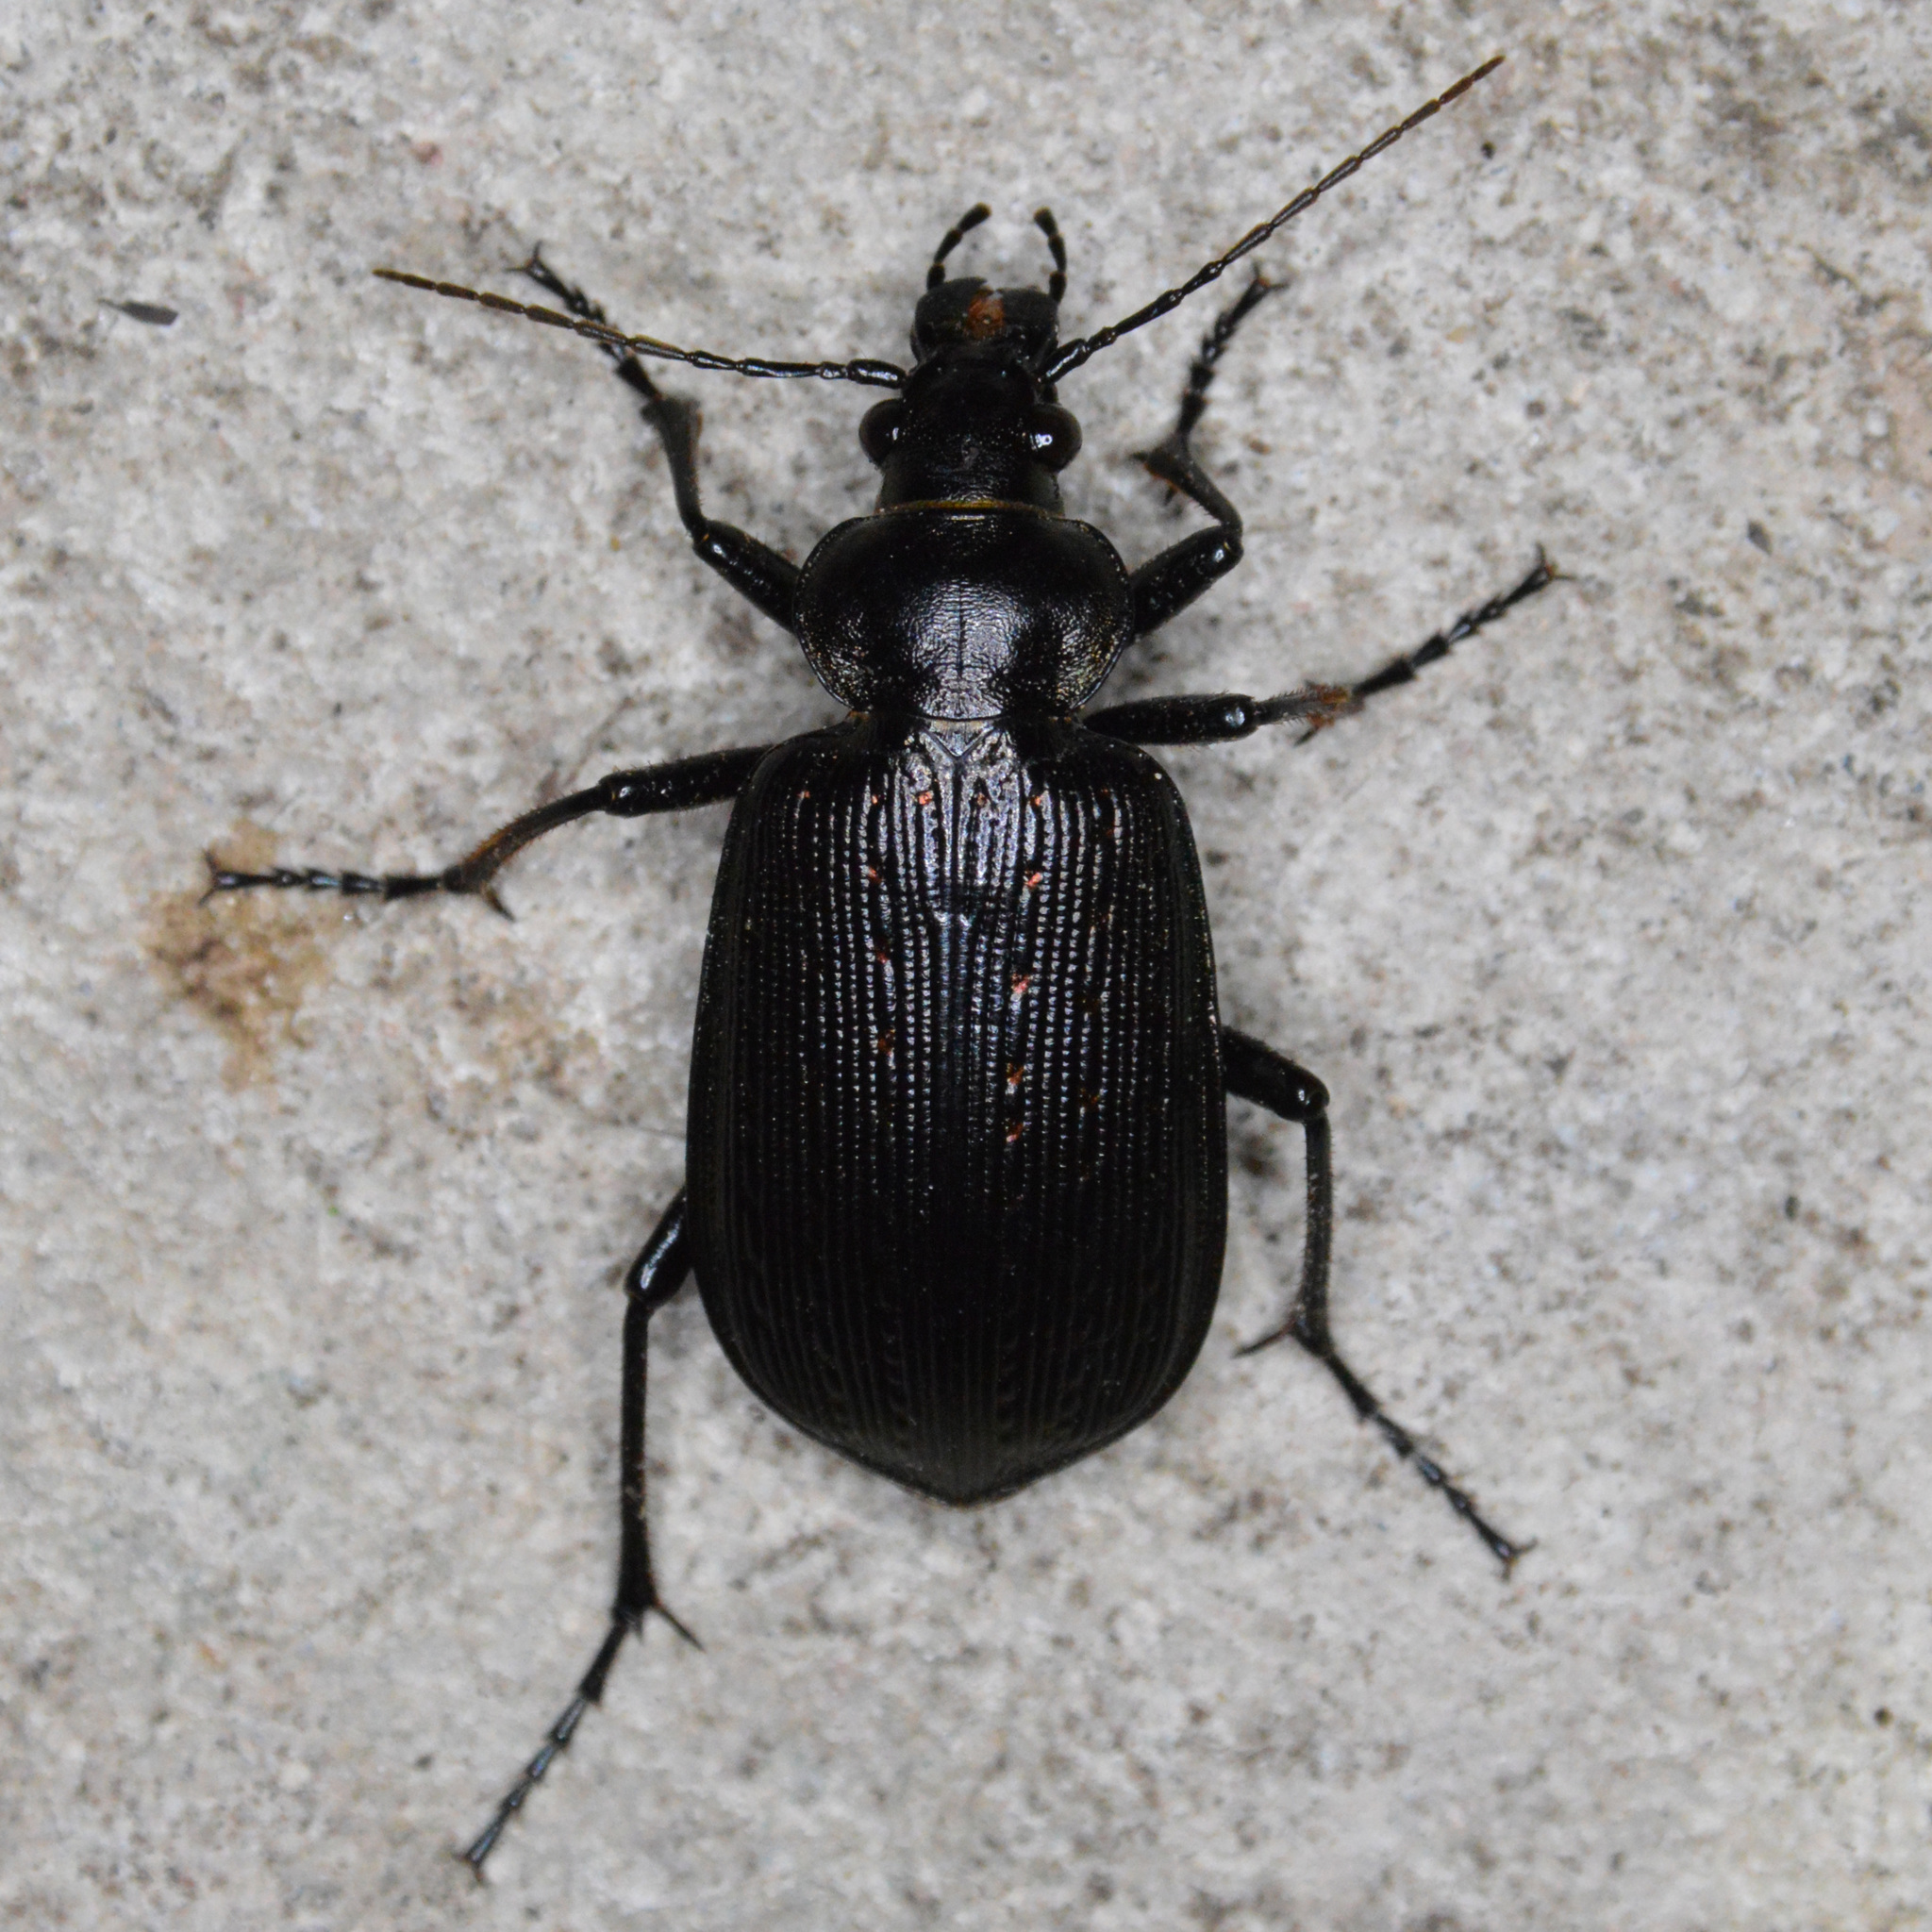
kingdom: Animalia
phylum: Arthropoda
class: Insecta
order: Coleoptera
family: Carabidae
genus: Calosoma
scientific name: Calosoma sayi
